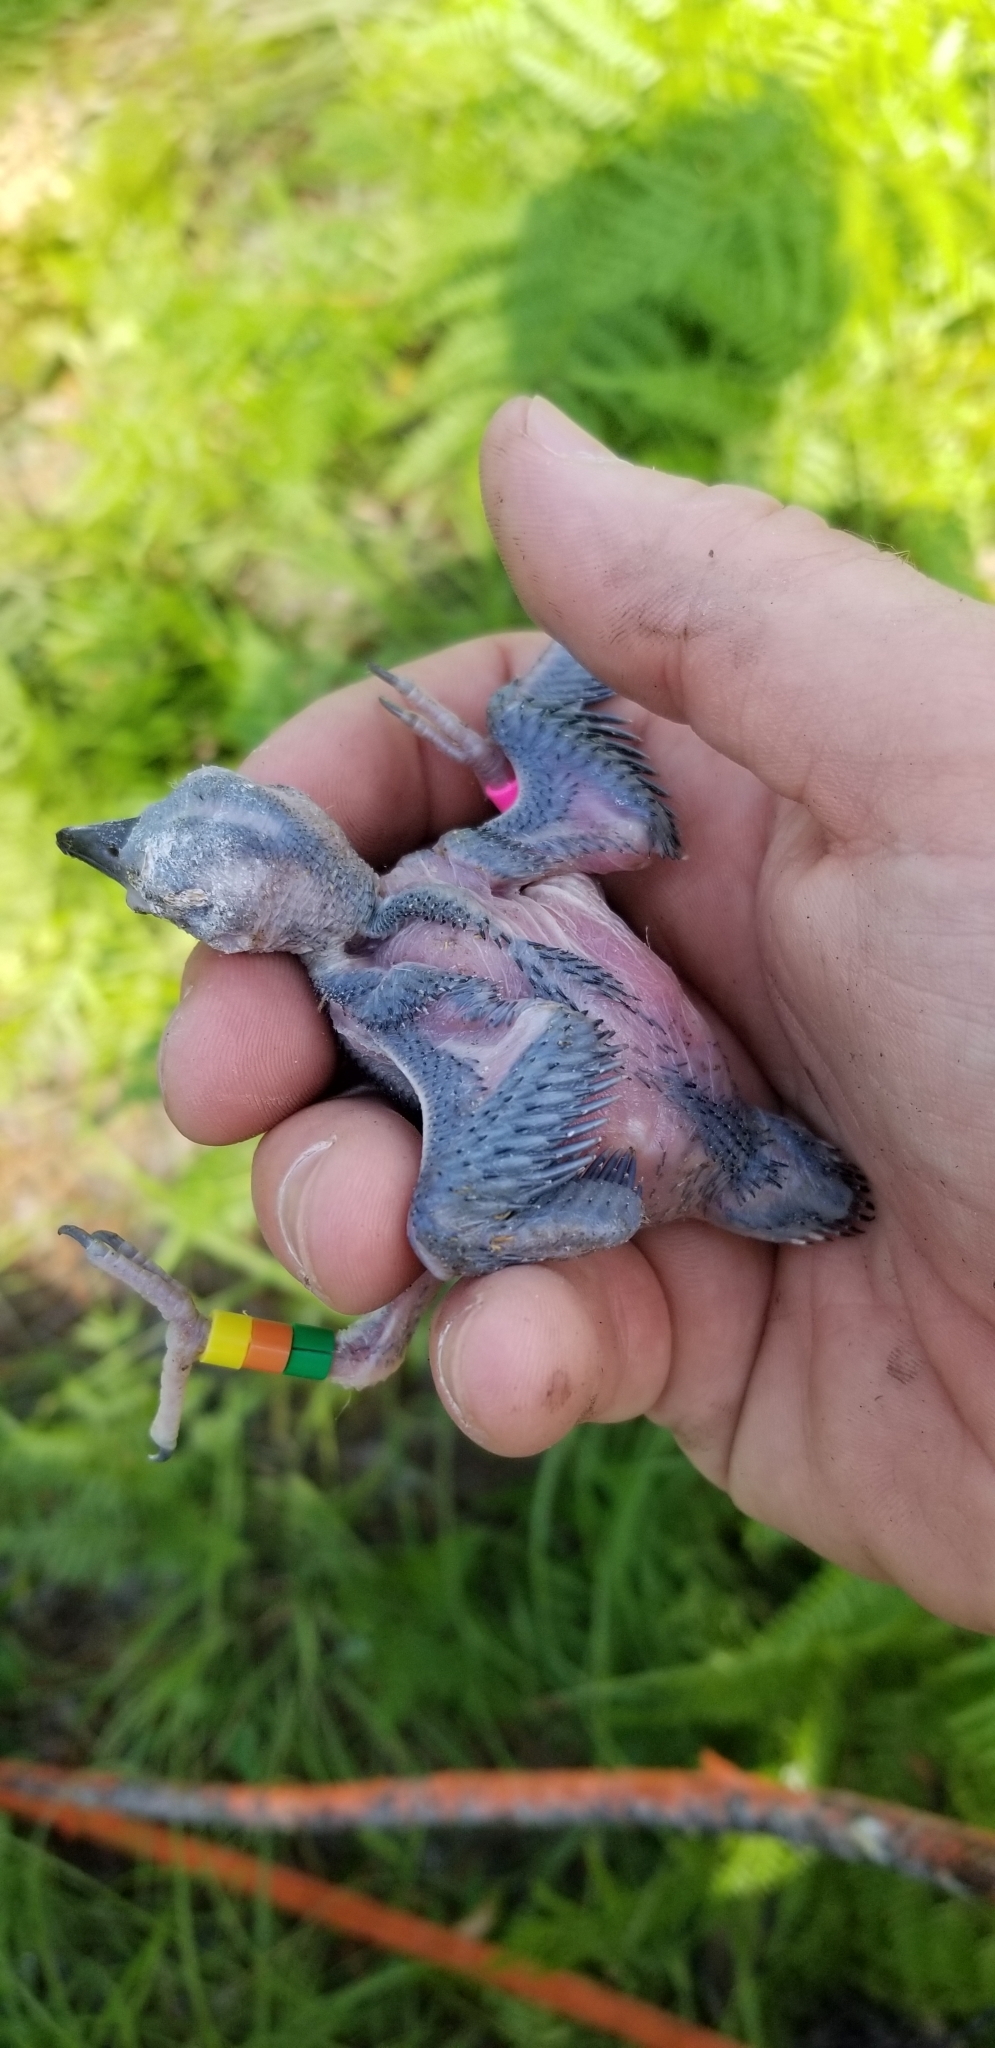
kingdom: Animalia
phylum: Chordata
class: Aves
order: Piciformes
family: Picidae
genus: Leuconotopicus
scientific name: Leuconotopicus borealis
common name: Red-cockaded woodpecker
